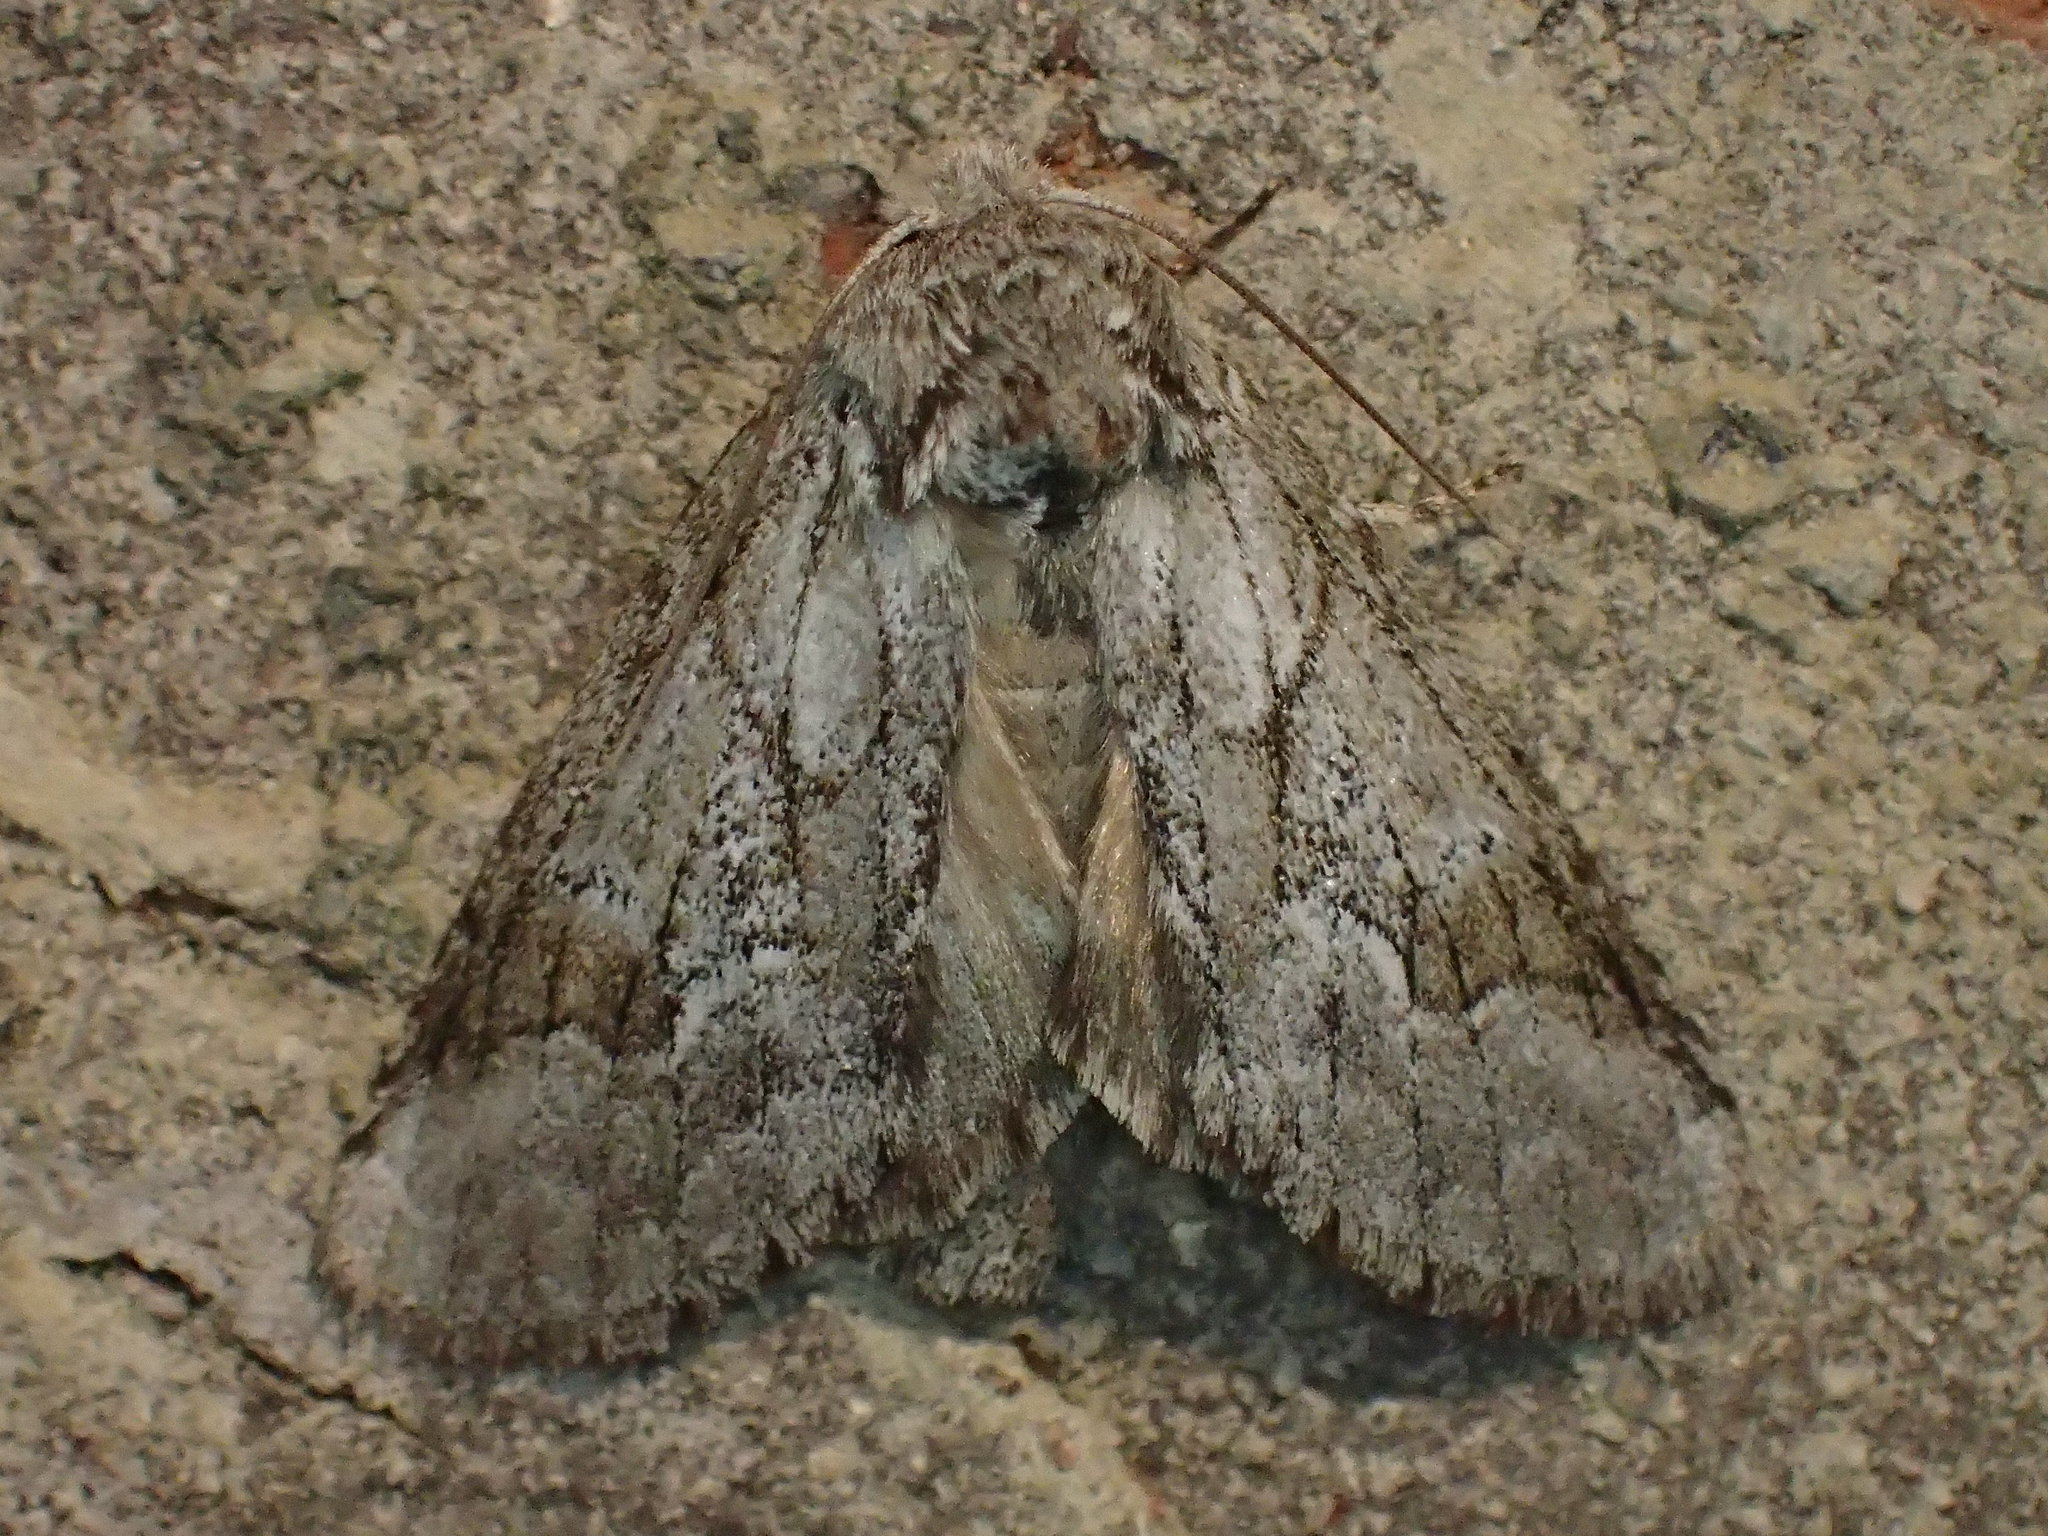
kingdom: Animalia
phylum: Arthropoda
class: Insecta
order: Lepidoptera
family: Notodontidae
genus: Lochmaeus
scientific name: Lochmaeus bilineata
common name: Double-lined prominent
